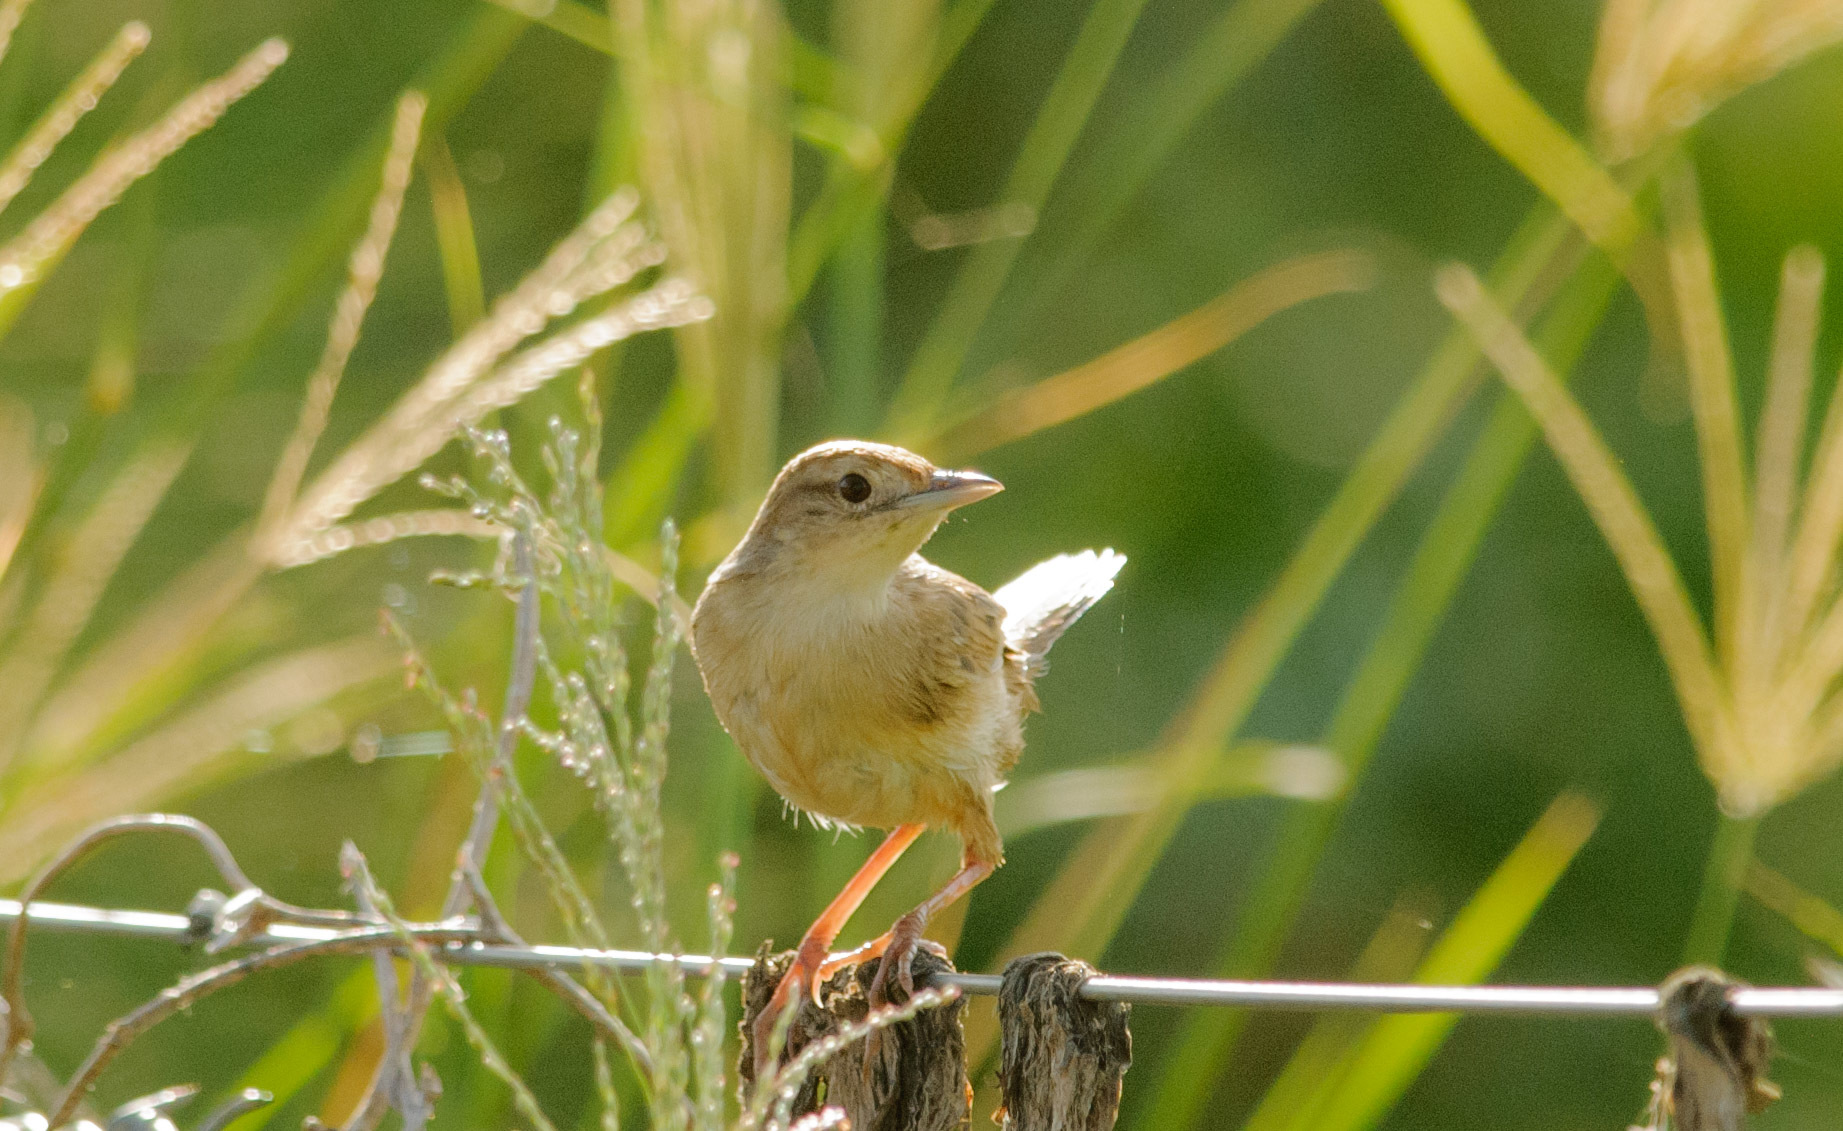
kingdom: Animalia
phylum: Chordata
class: Aves
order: Passeriformes
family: Locustellidae
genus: Megalurus
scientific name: Megalurus timoriensis
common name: Tawny grassbird
